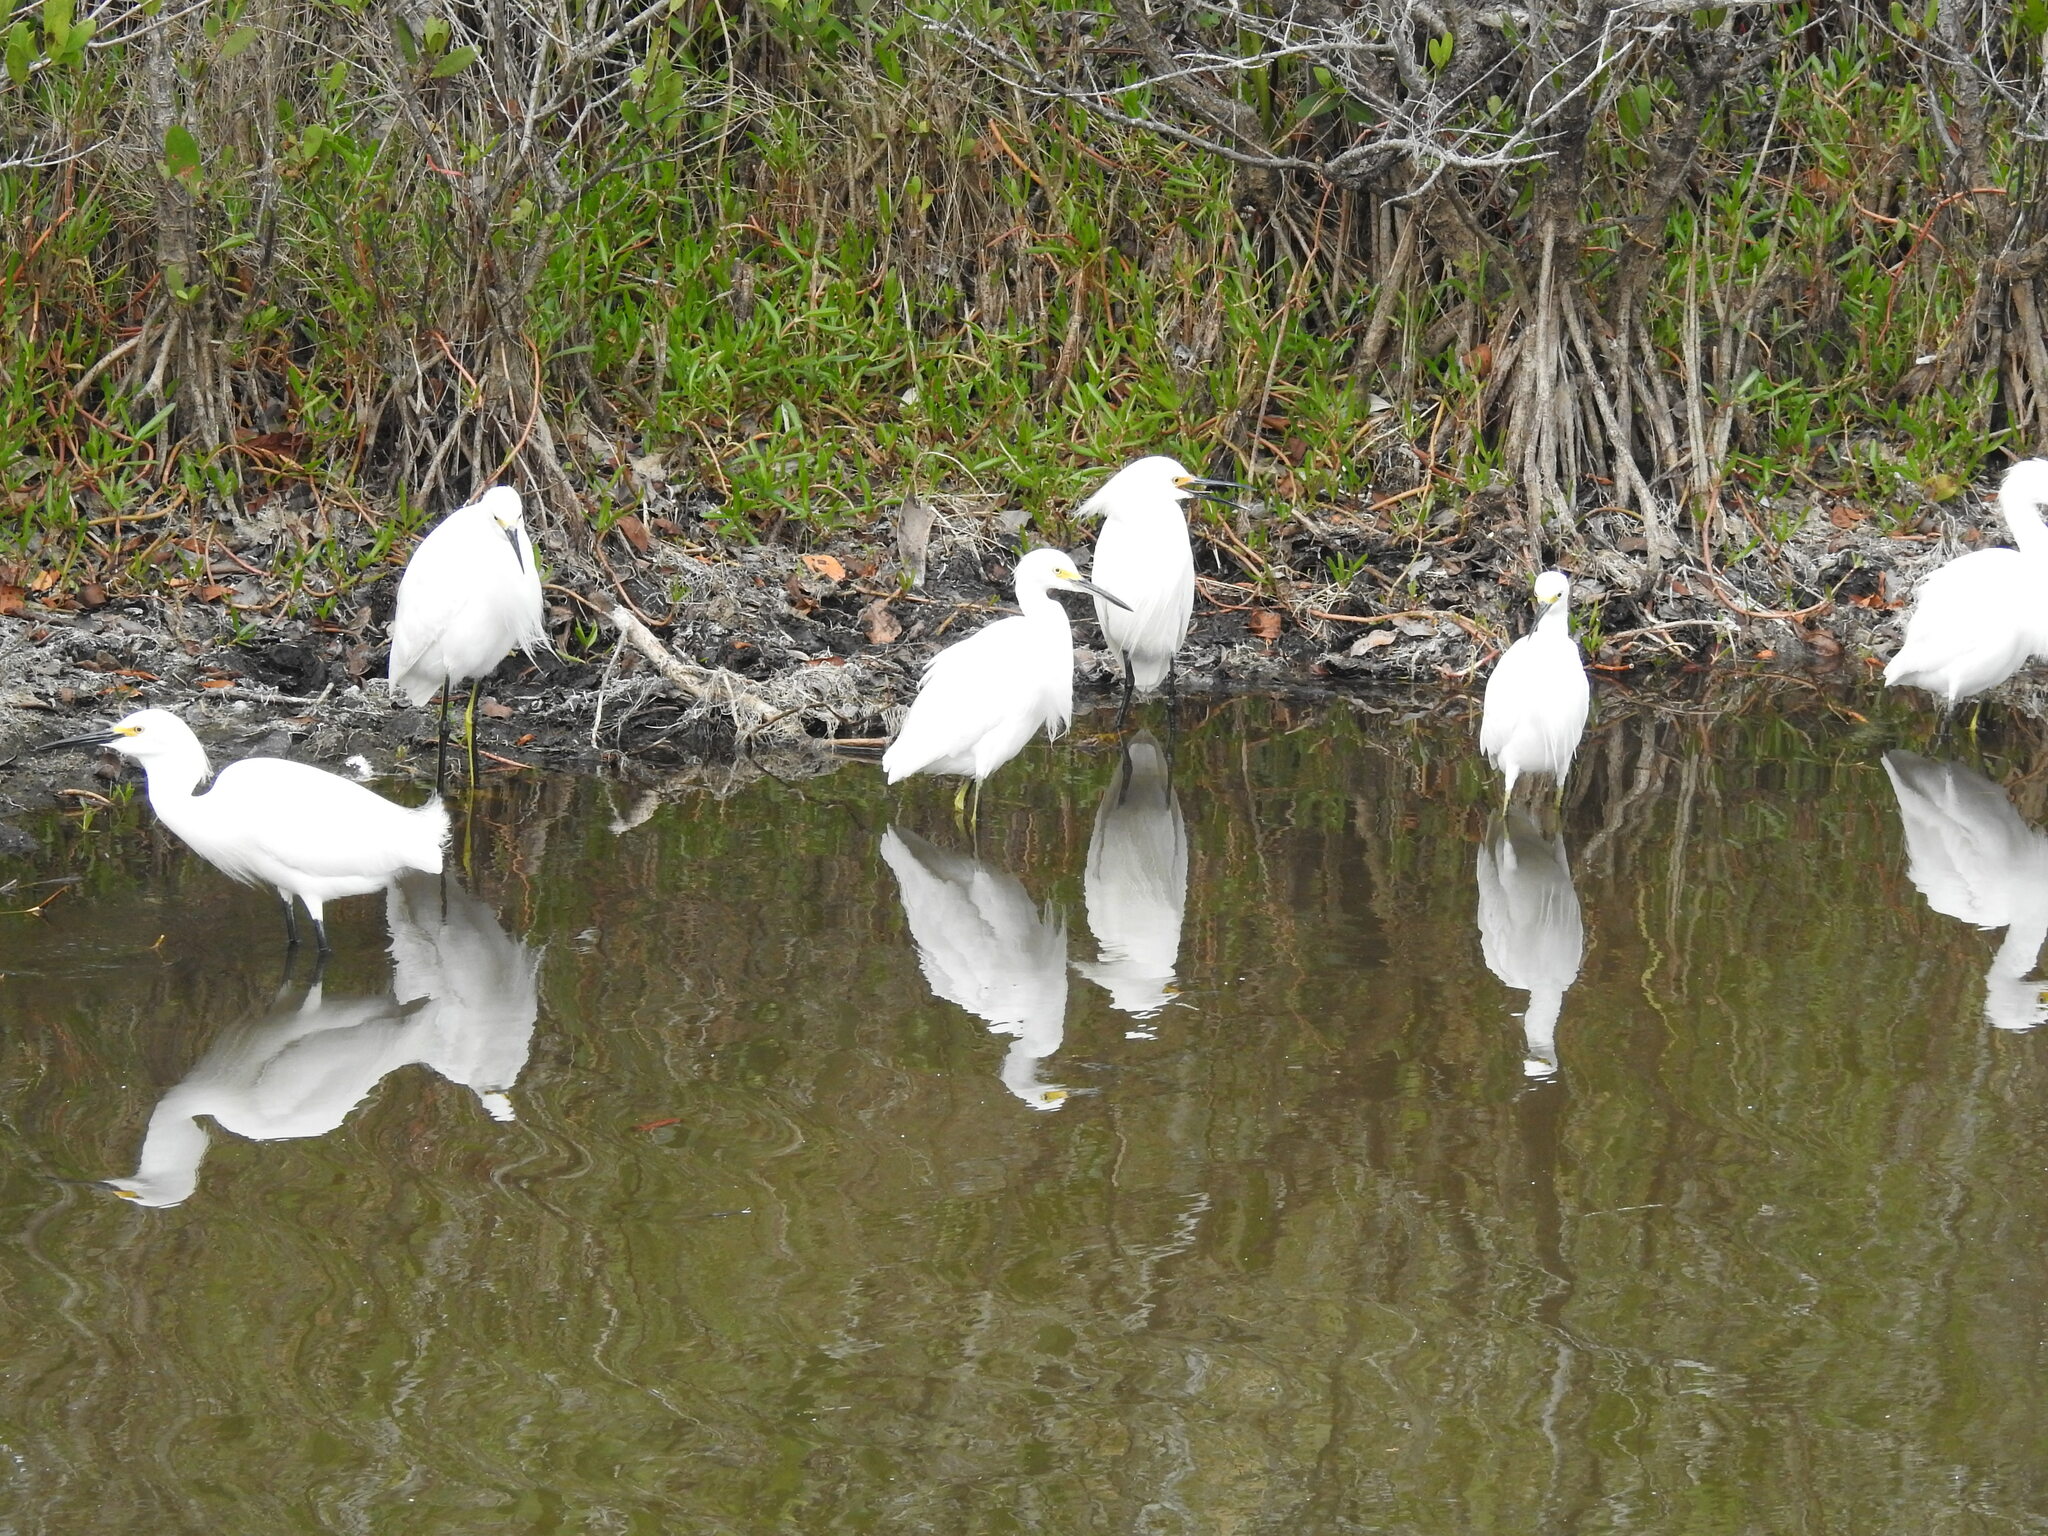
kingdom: Animalia
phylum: Chordata
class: Aves
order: Pelecaniformes
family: Ardeidae
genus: Egretta
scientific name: Egretta thula
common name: Snowy egret
